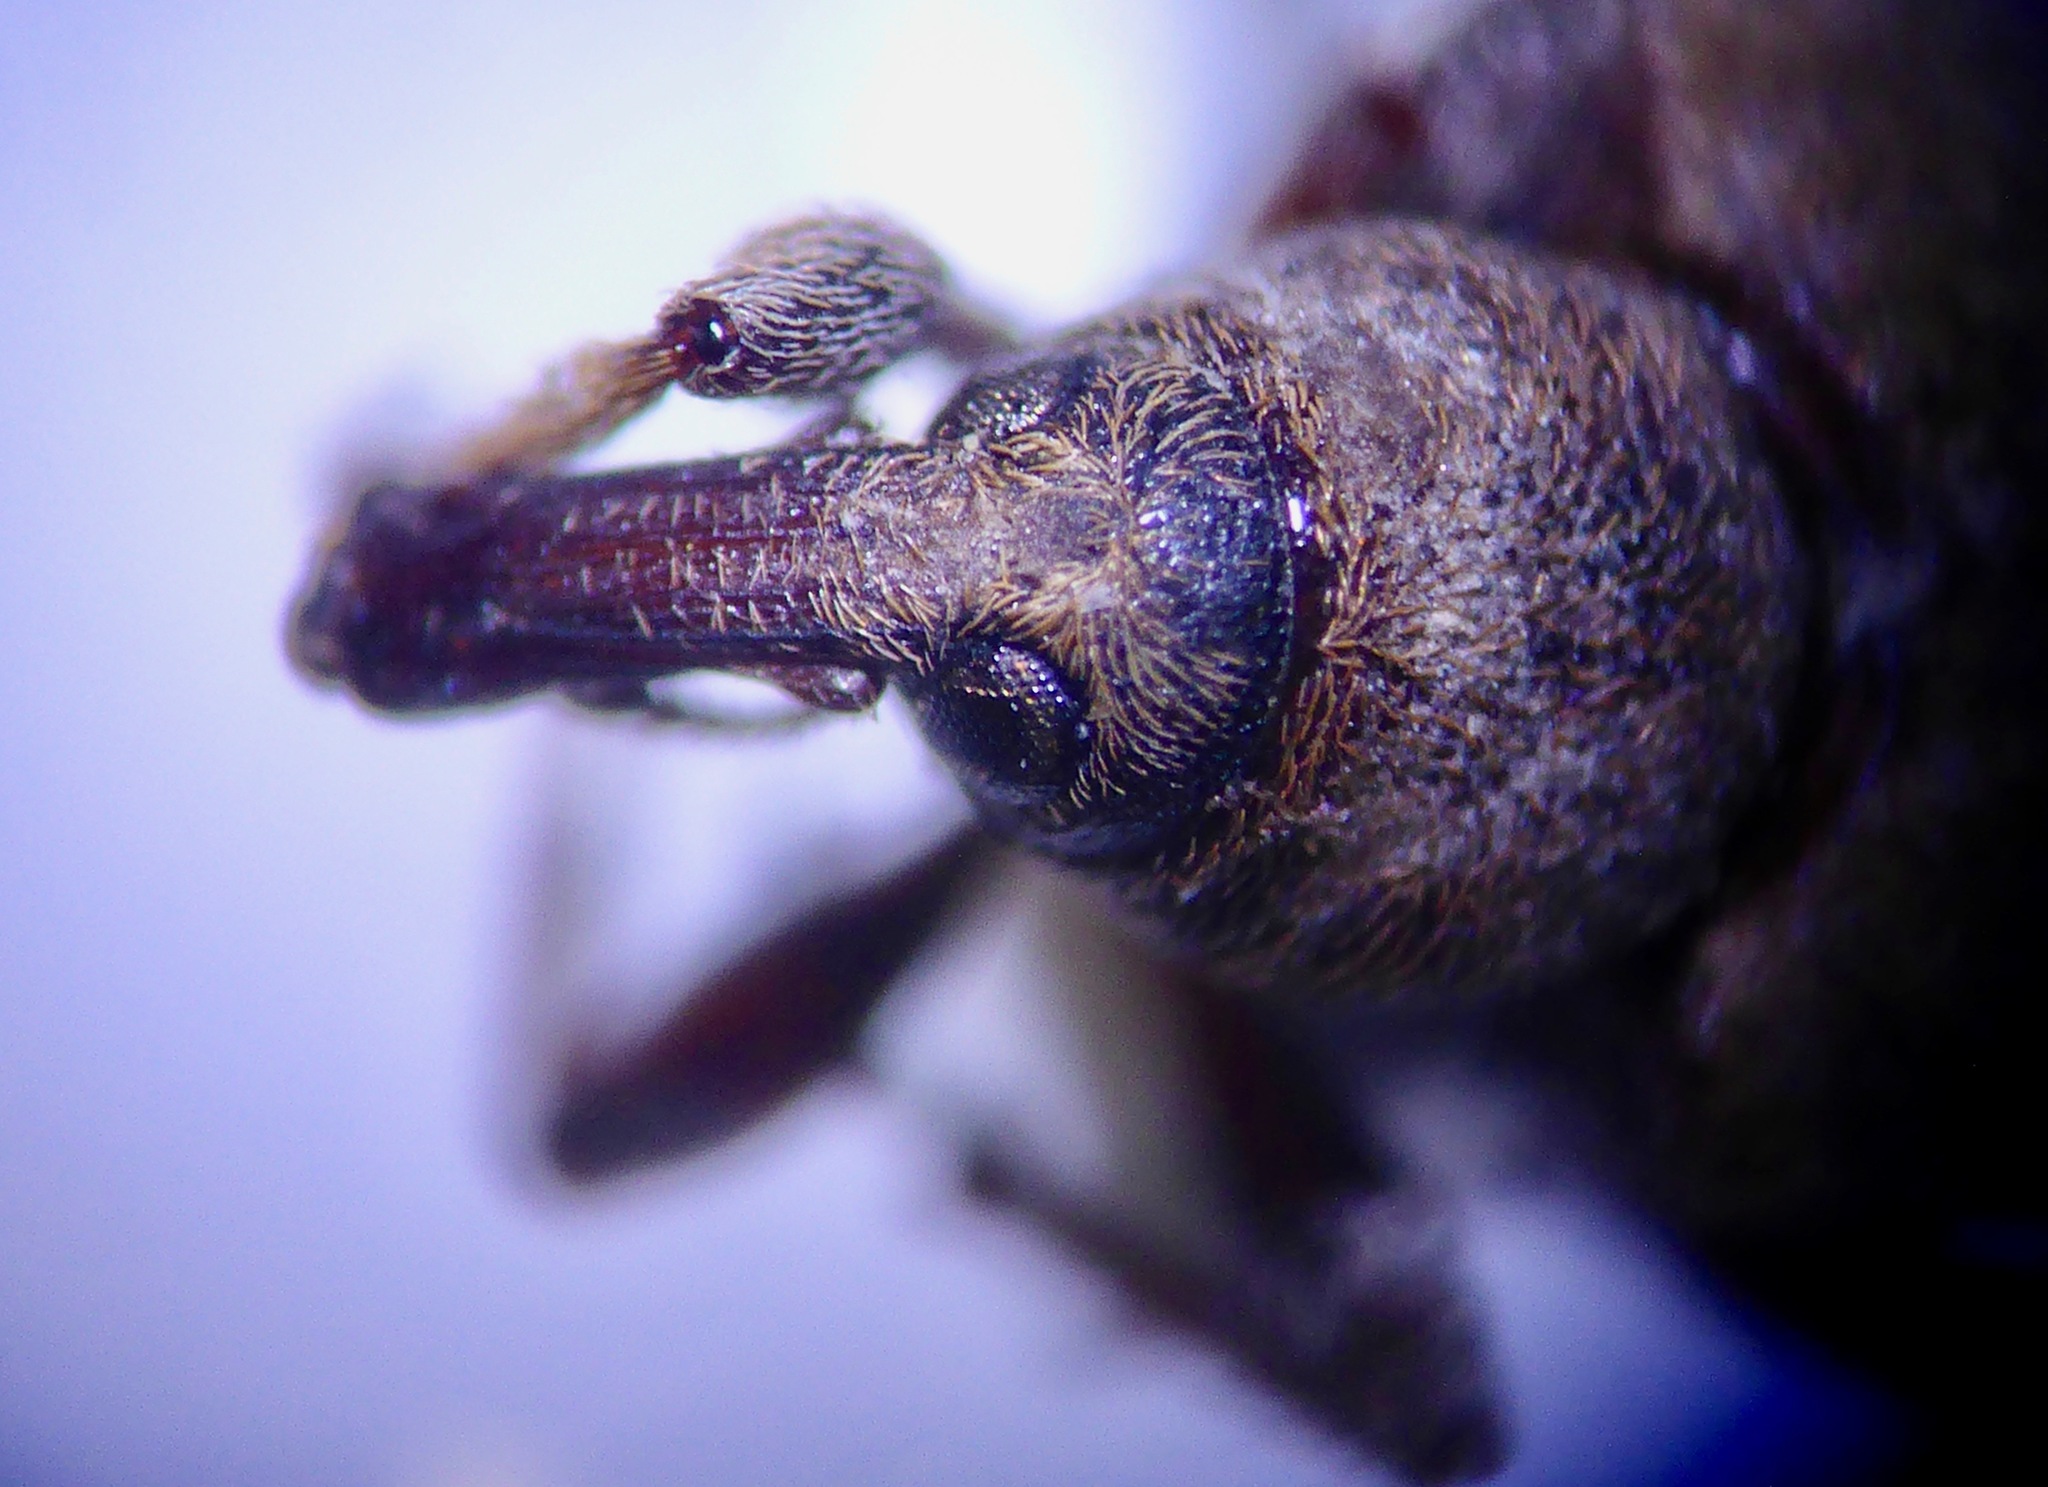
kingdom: Animalia
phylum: Arthropoda
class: Insecta
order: Coleoptera
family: Curculionidae
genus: Steriphus
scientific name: Steriphus diversipes
